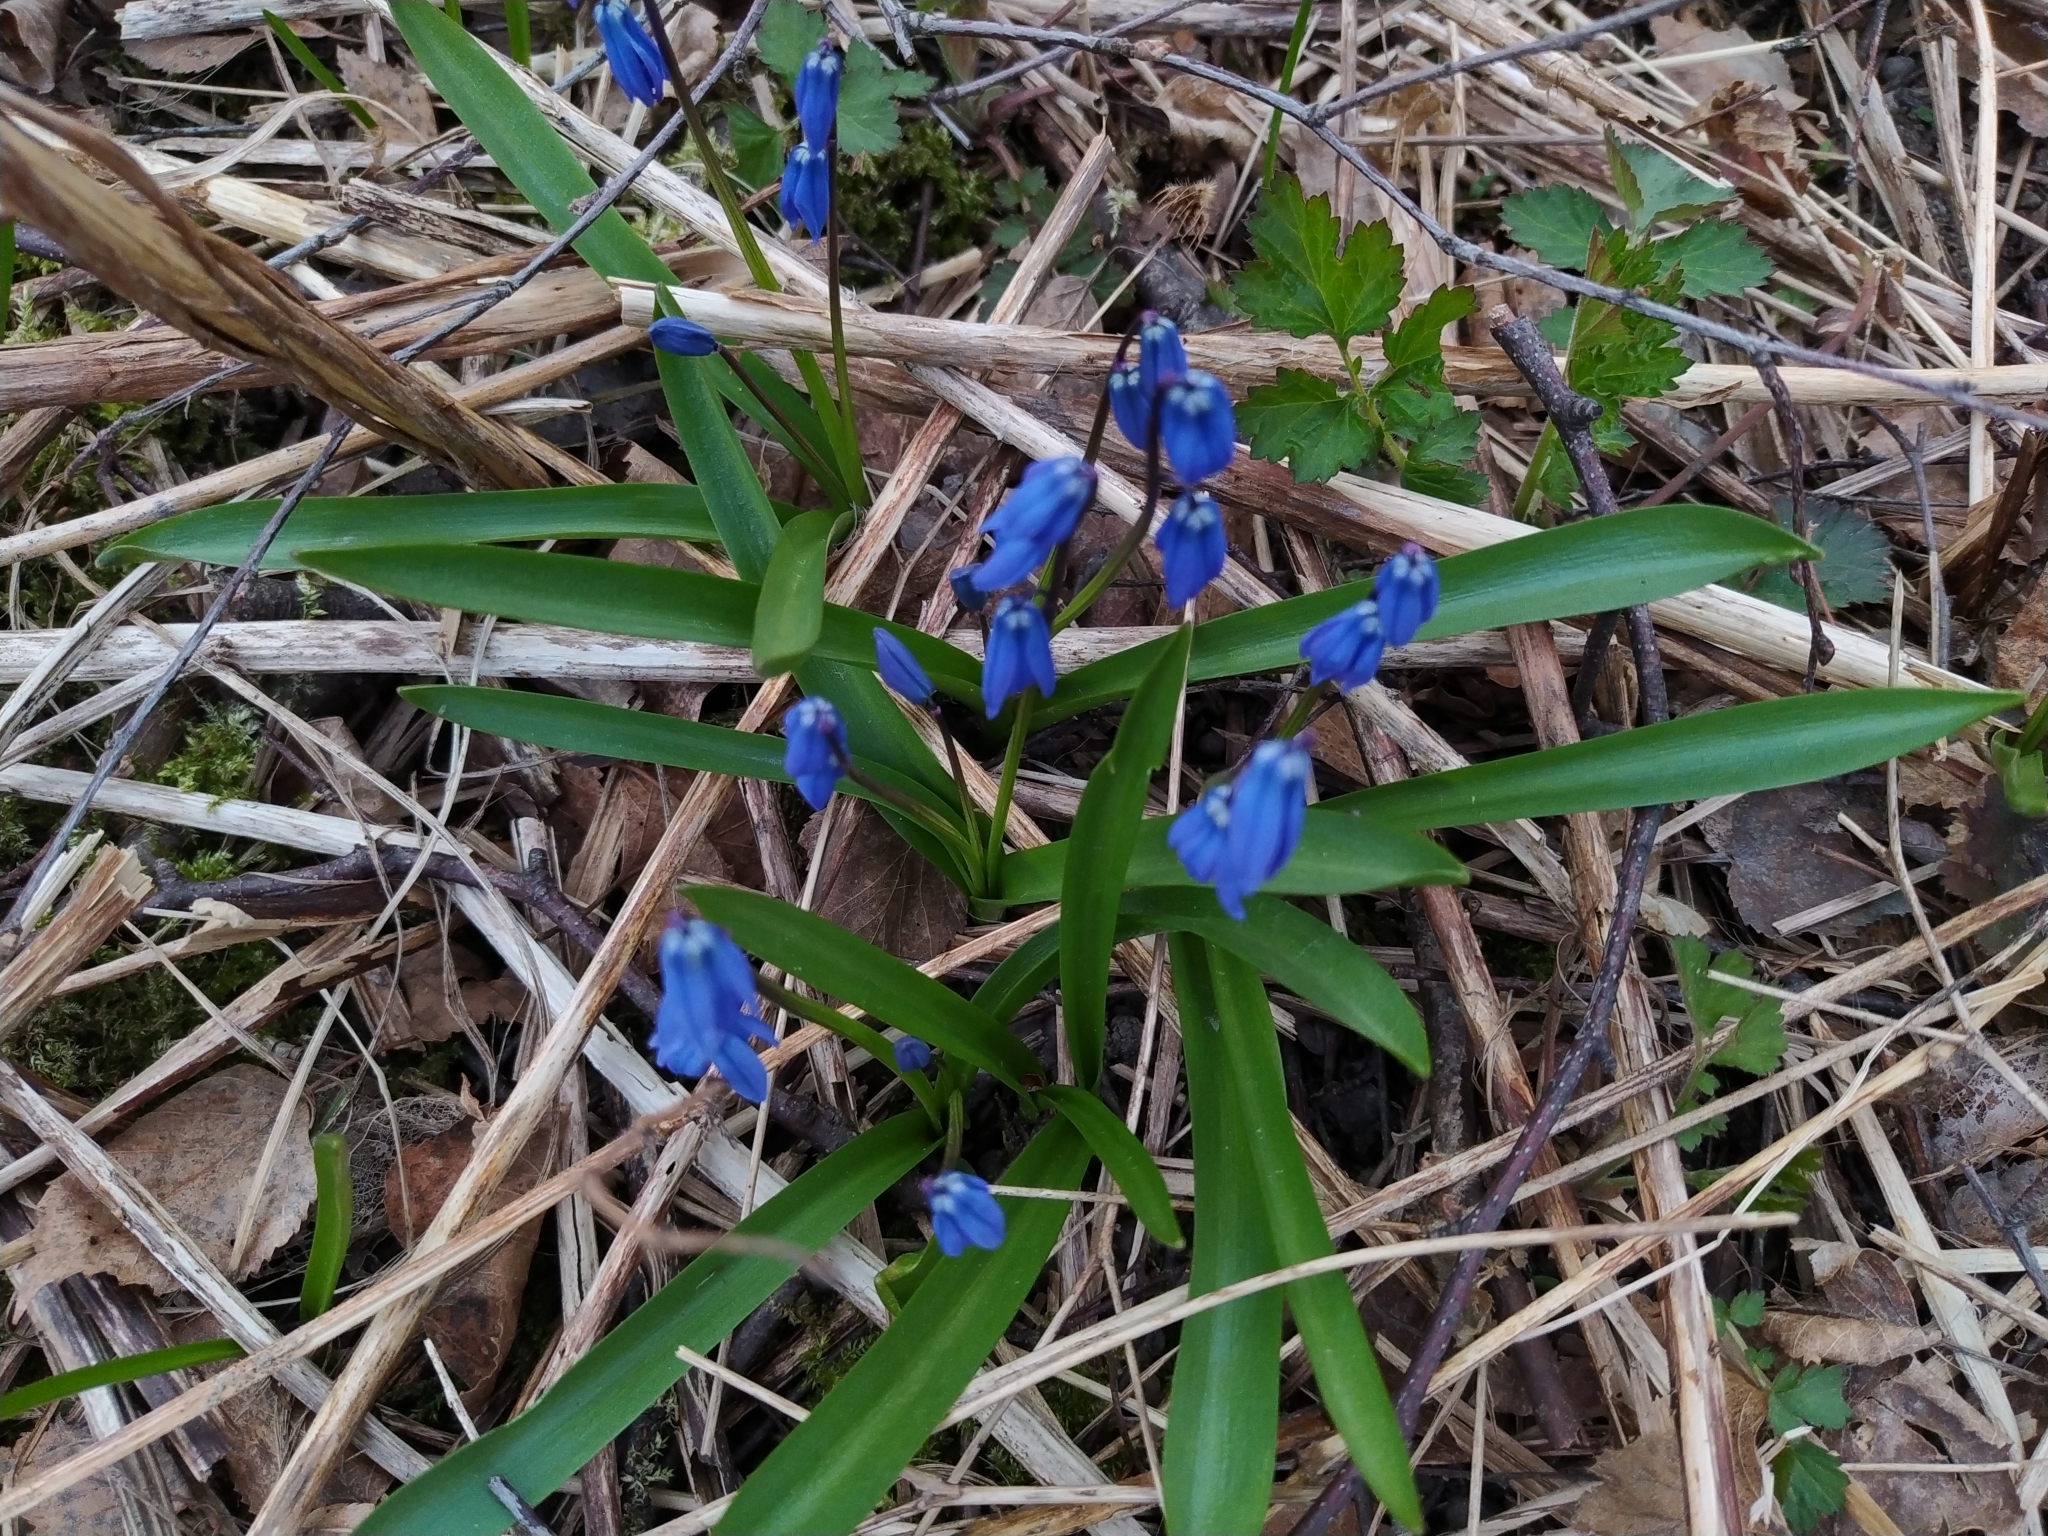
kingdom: Plantae
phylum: Tracheophyta
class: Liliopsida
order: Asparagales
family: Asparagaceae
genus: Scilla
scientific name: Scilla siberica
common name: Siberian squill
